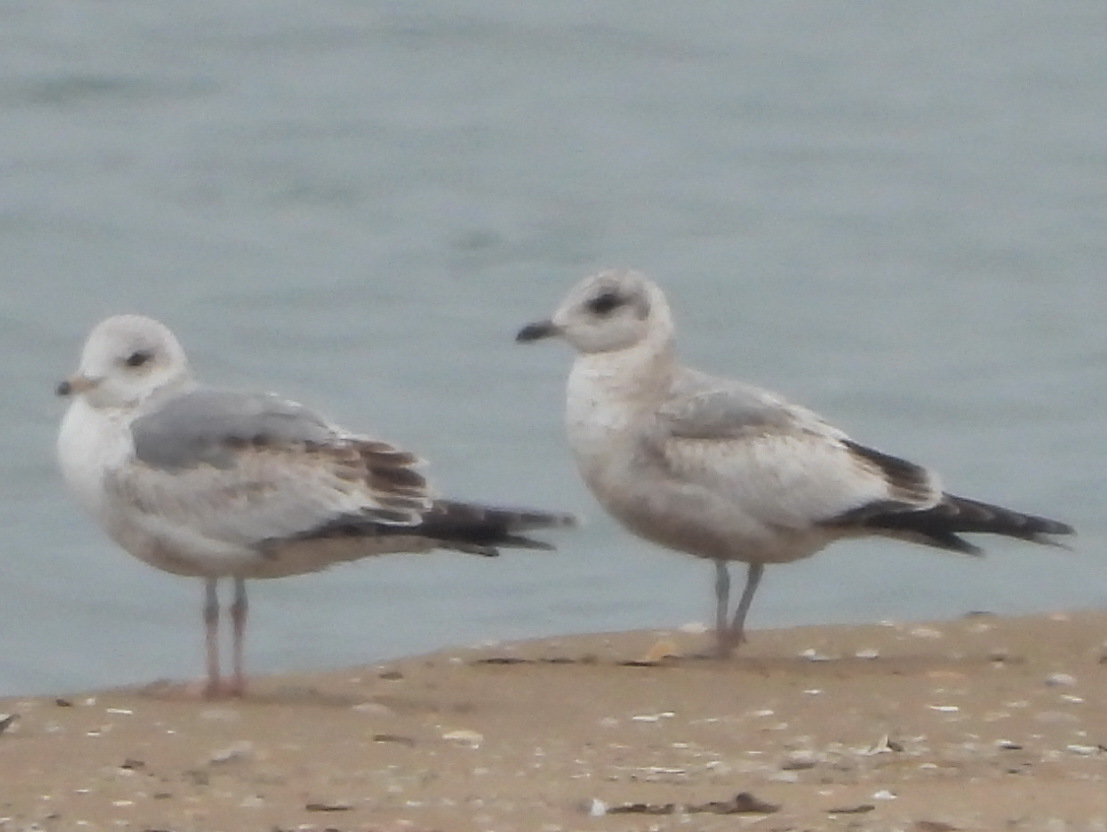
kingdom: Animalia
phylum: Chordata
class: Aves
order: Charadriiformes
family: Laridae
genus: Larus
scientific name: Larus canus
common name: Mew gull
